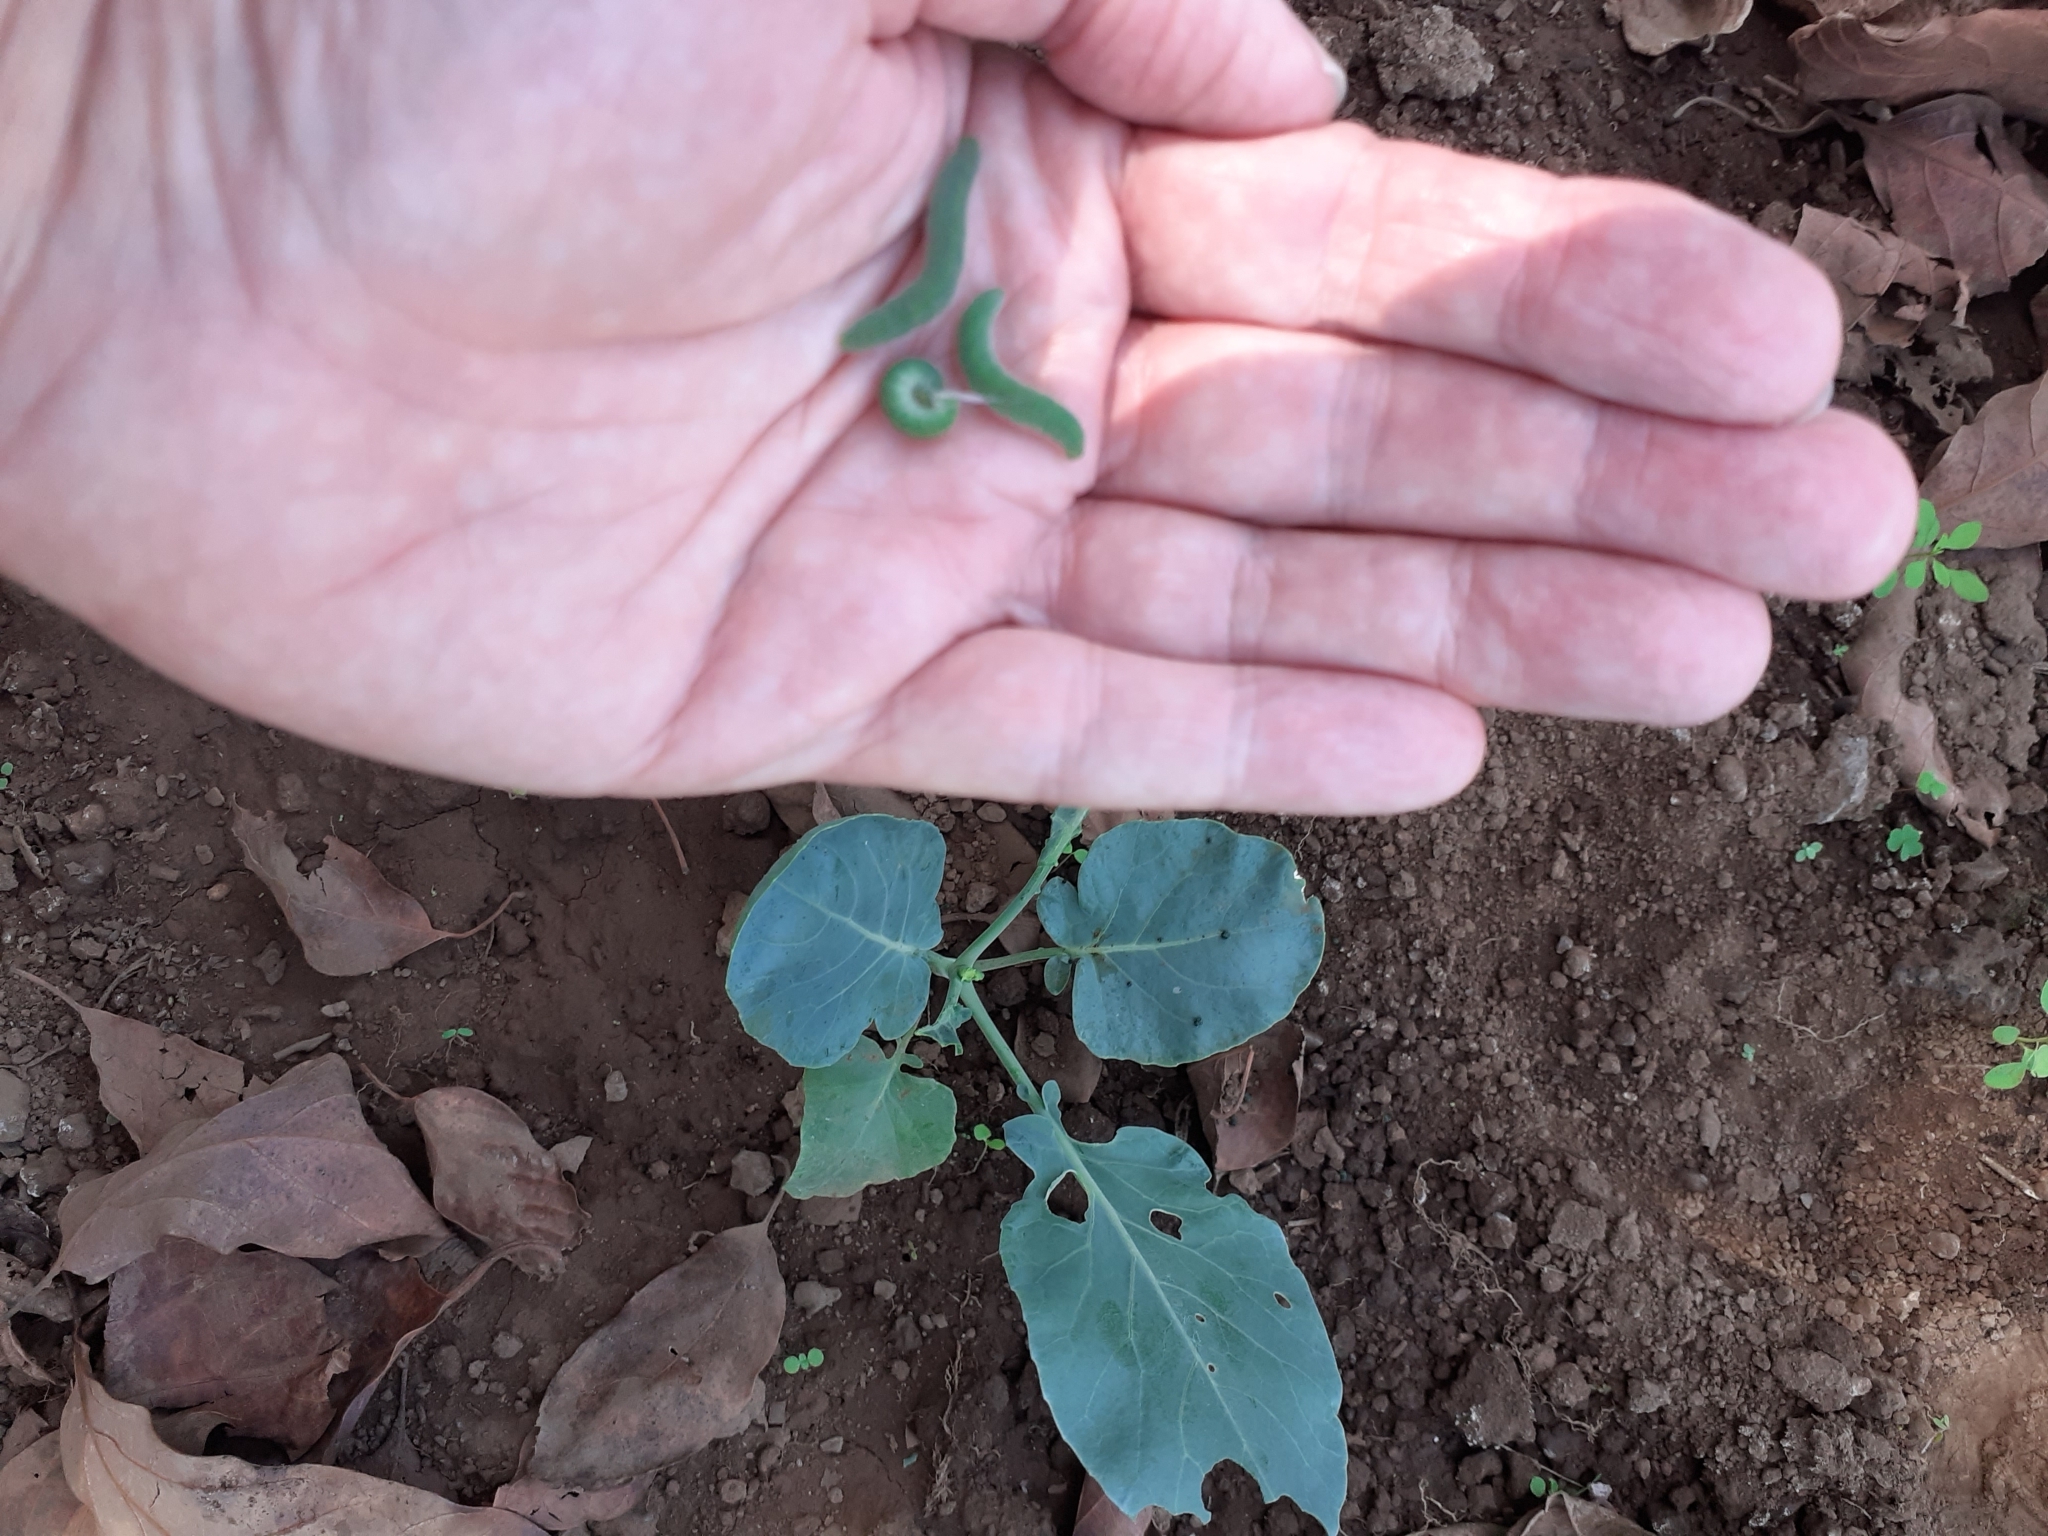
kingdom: Animalia
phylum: Arthropoda
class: Insecta
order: Lepidoptera
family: Pieridae
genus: Pieris
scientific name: Pieris rapae
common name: Small white
